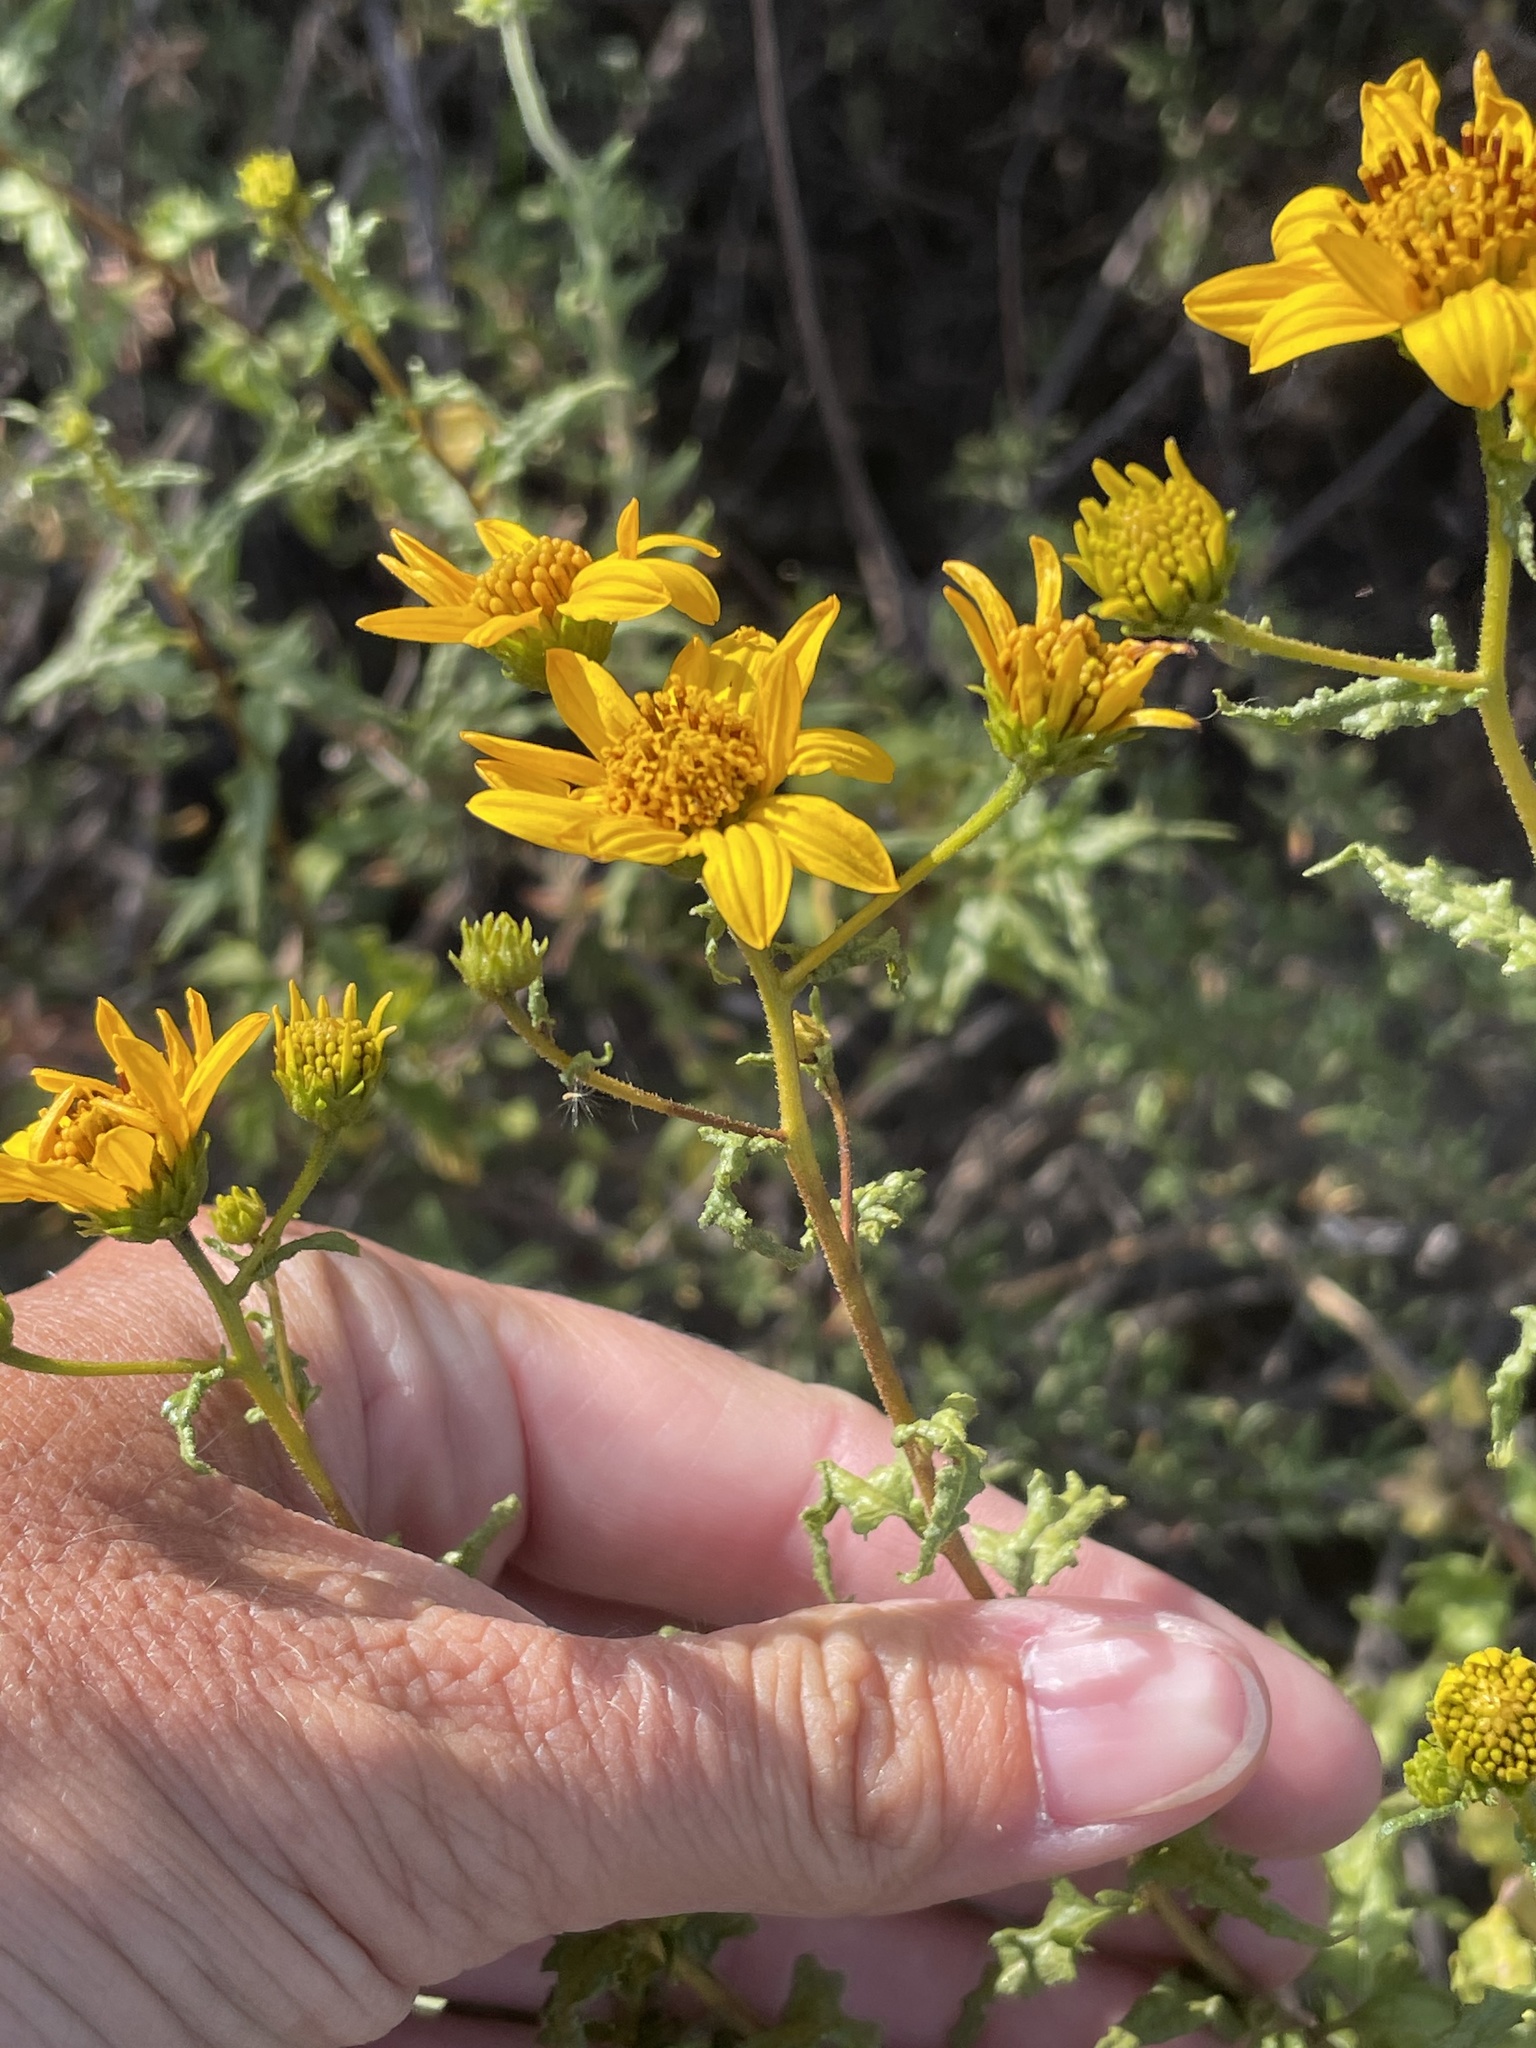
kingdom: Plantae
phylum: Tracheophyta
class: Magnoliopsida
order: Asterales
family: Asteraceae
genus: Bahiopsis
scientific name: Bahiopsis laciniata
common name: San diego county viguiera
